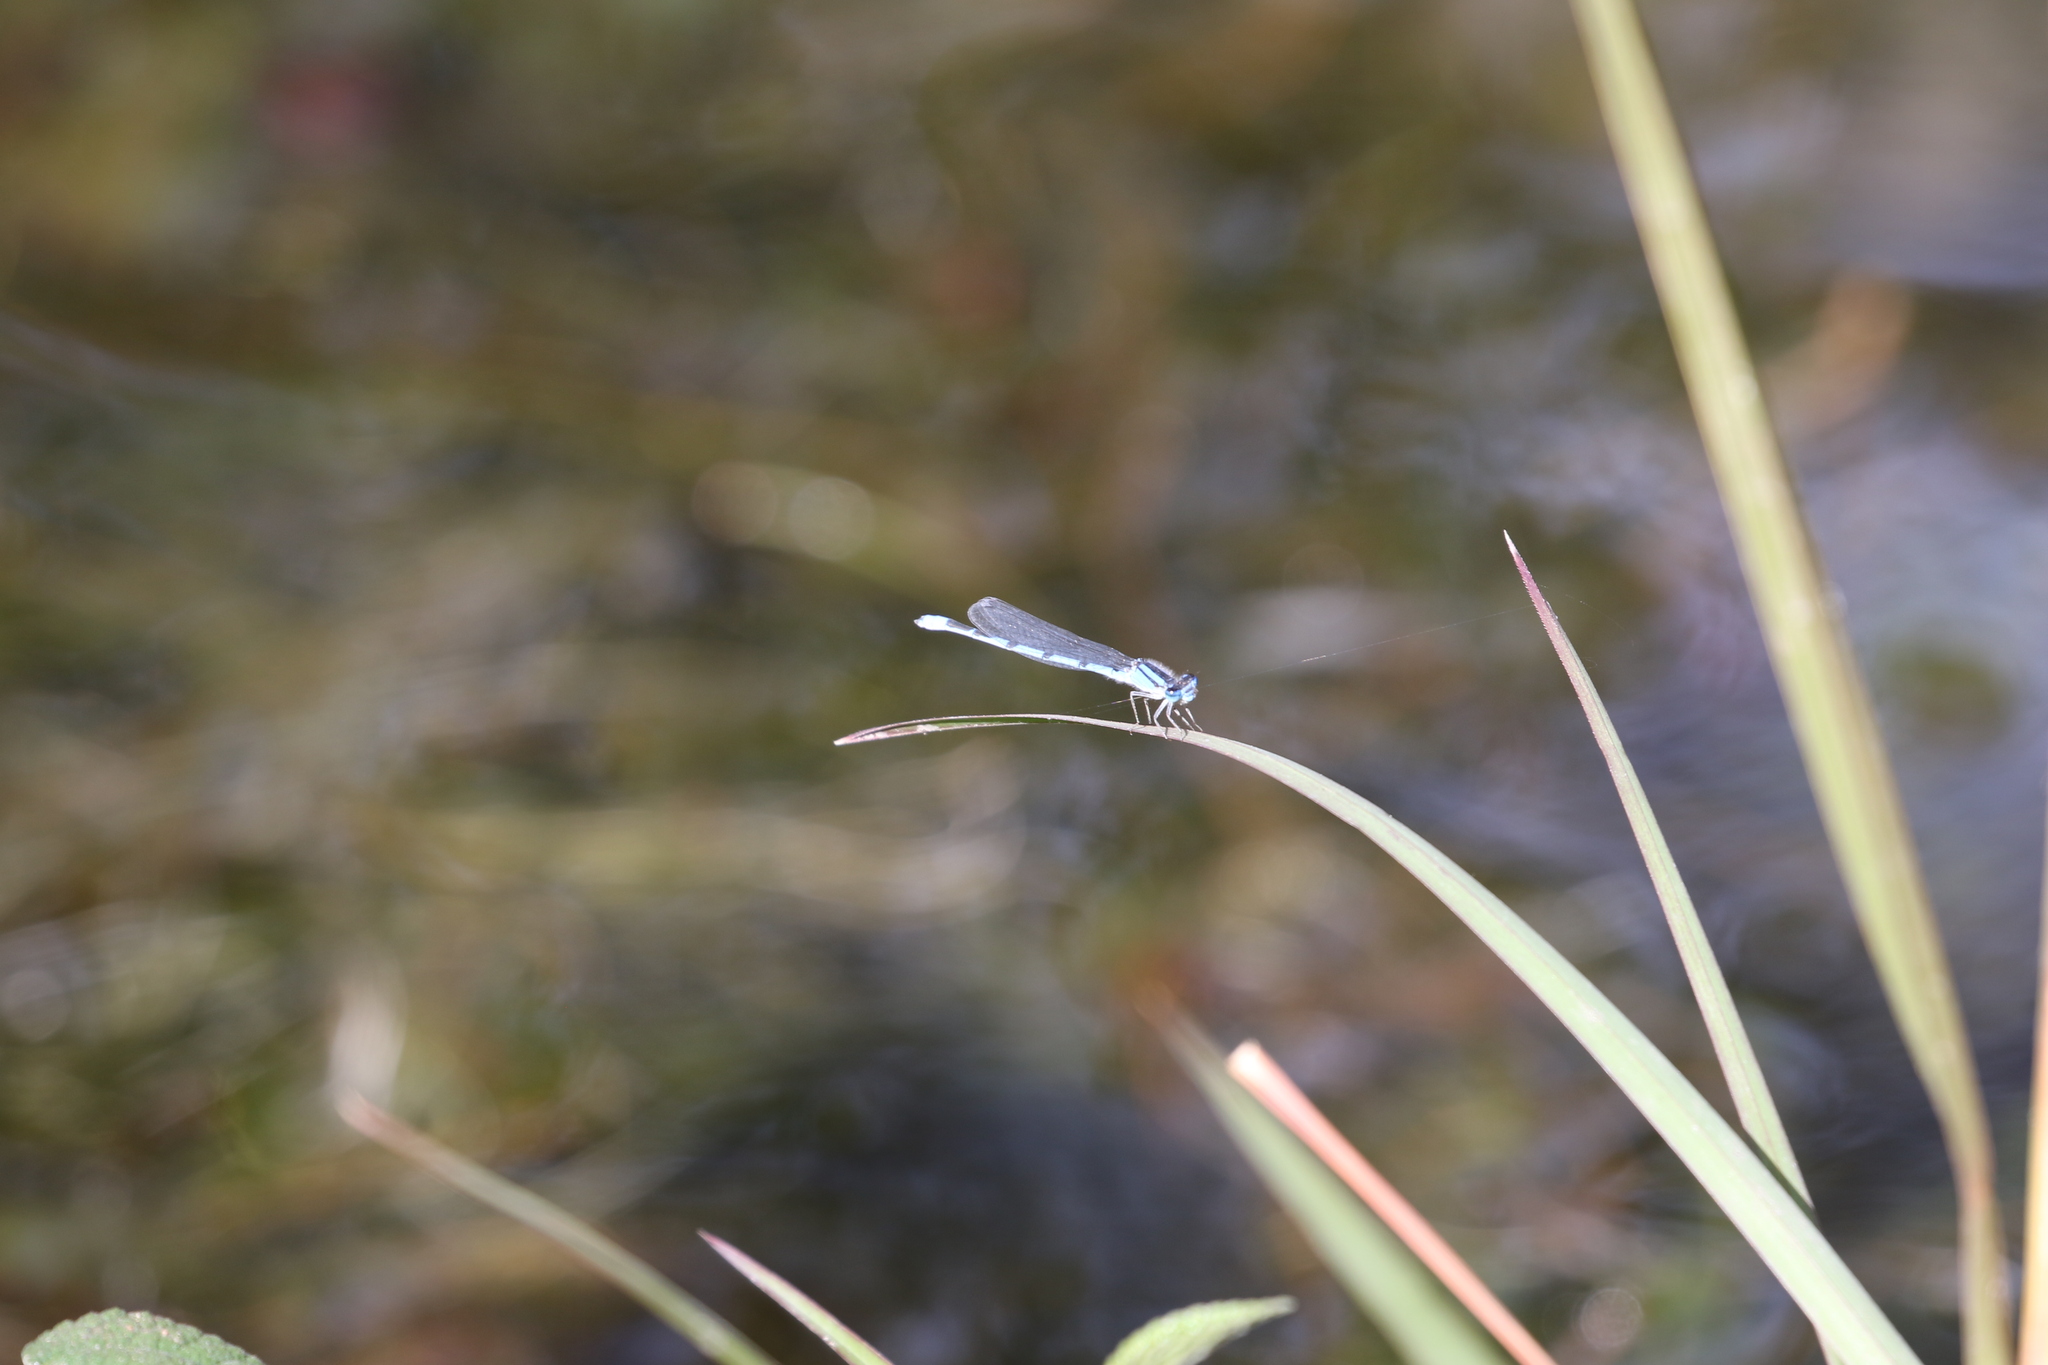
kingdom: Animalia
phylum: Arthropoda
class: Insecta
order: Odonata
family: Coenagrionidae
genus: Enallagma
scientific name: Enallagma civile
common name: Damselfly
